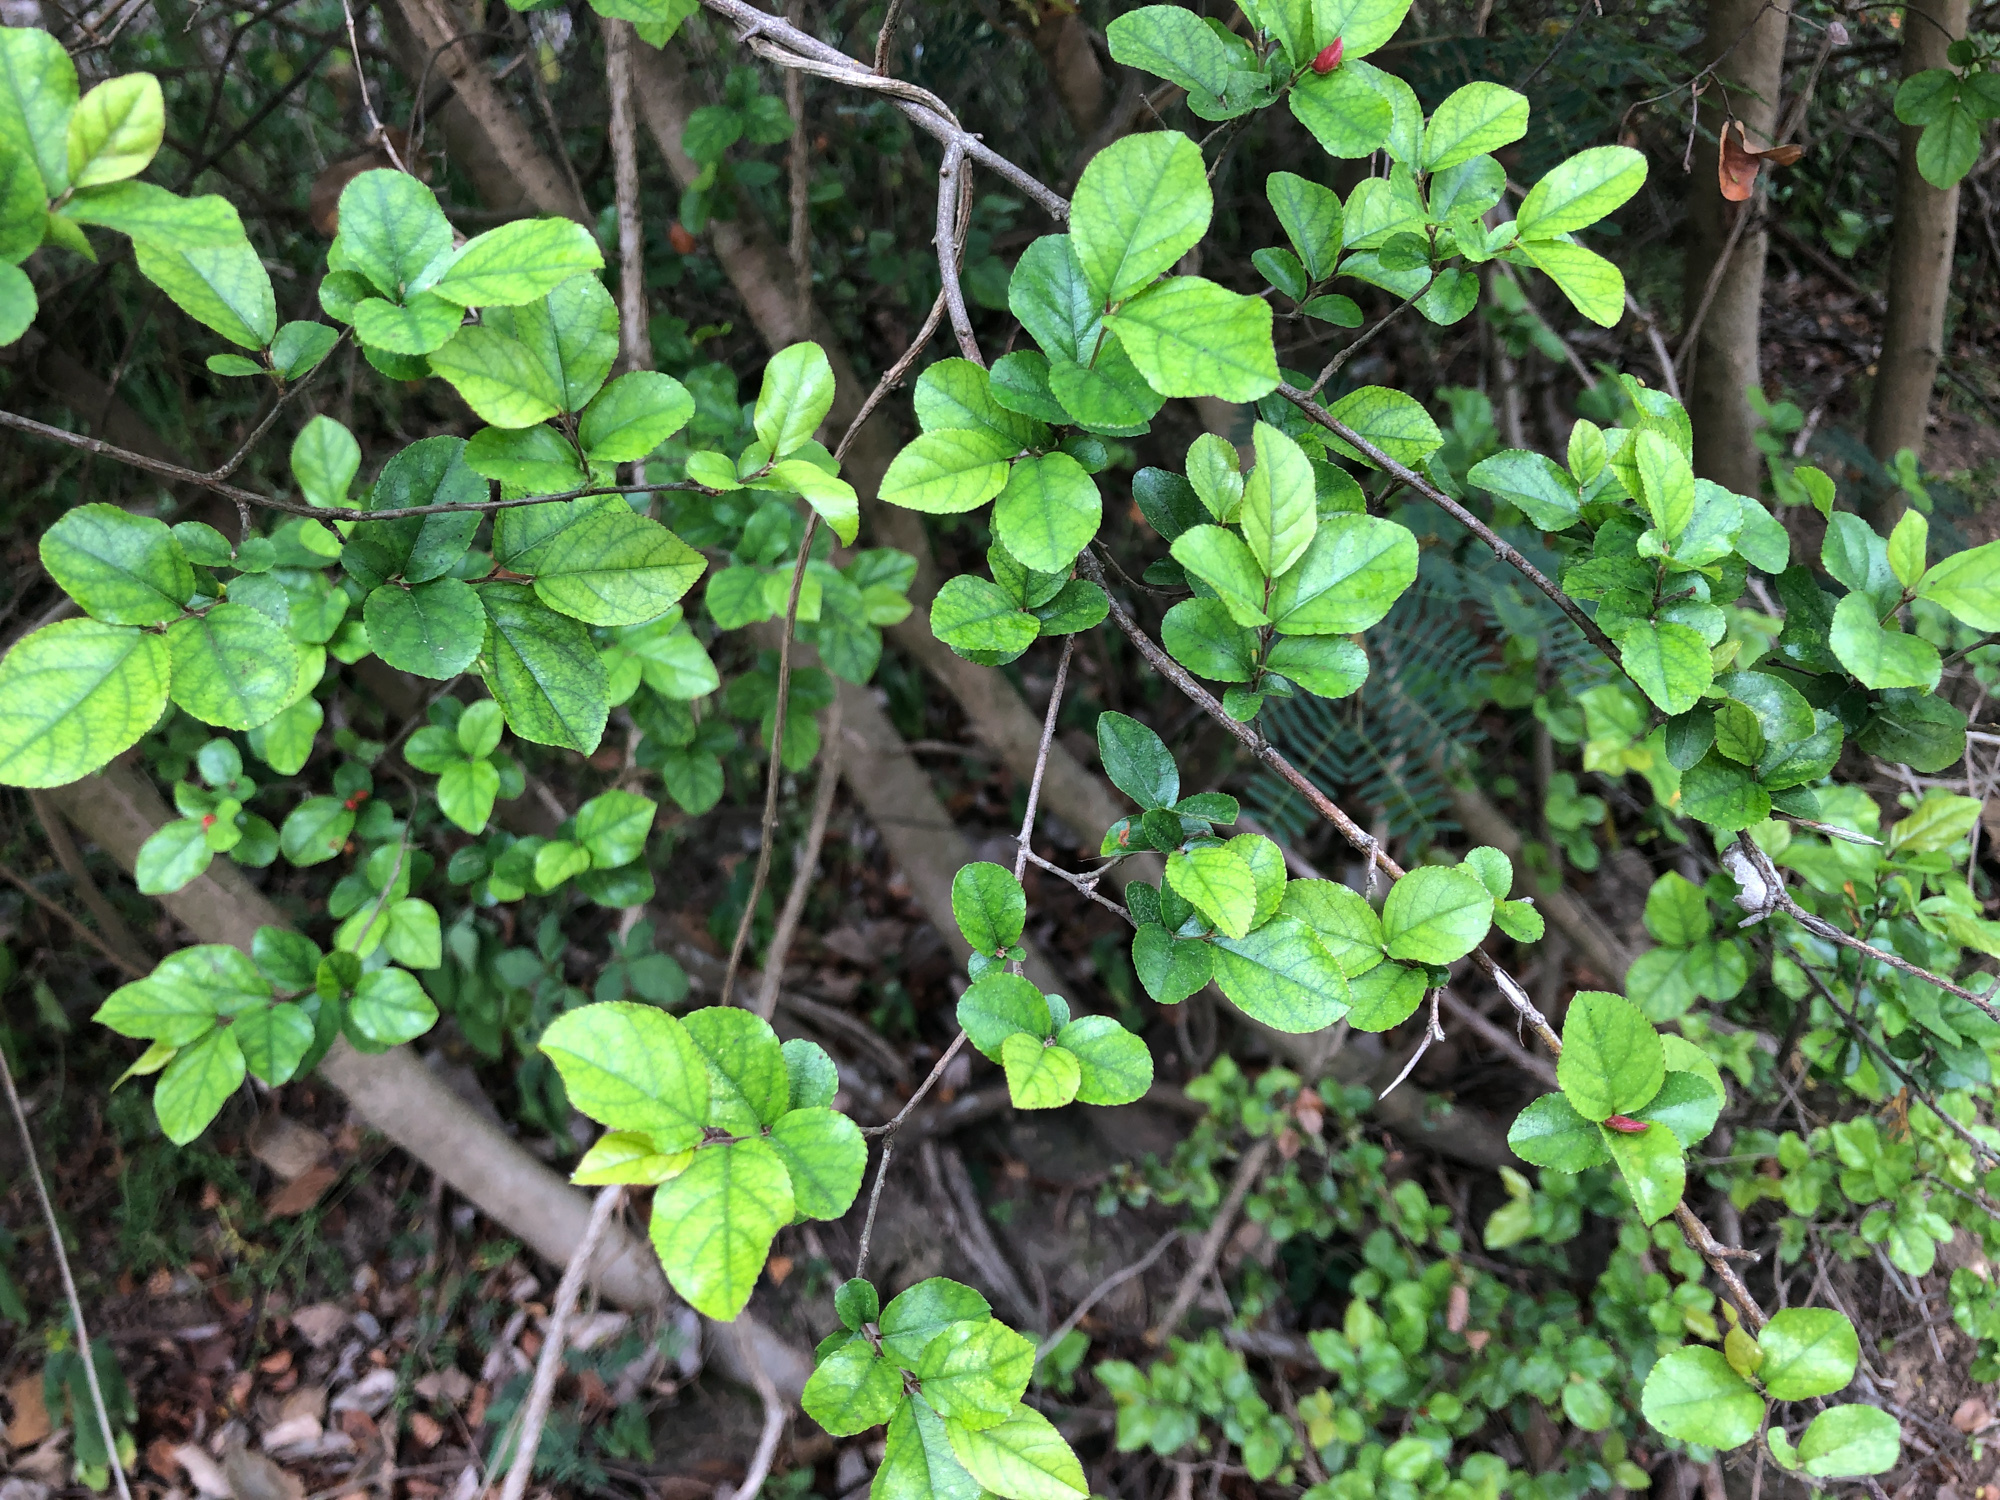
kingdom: Plantae
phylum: Tracheophyta
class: Magnoliopsida
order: Rosales
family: Rhamnaceae
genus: Sageretia
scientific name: Sageretia thea
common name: Pauper's-tea
